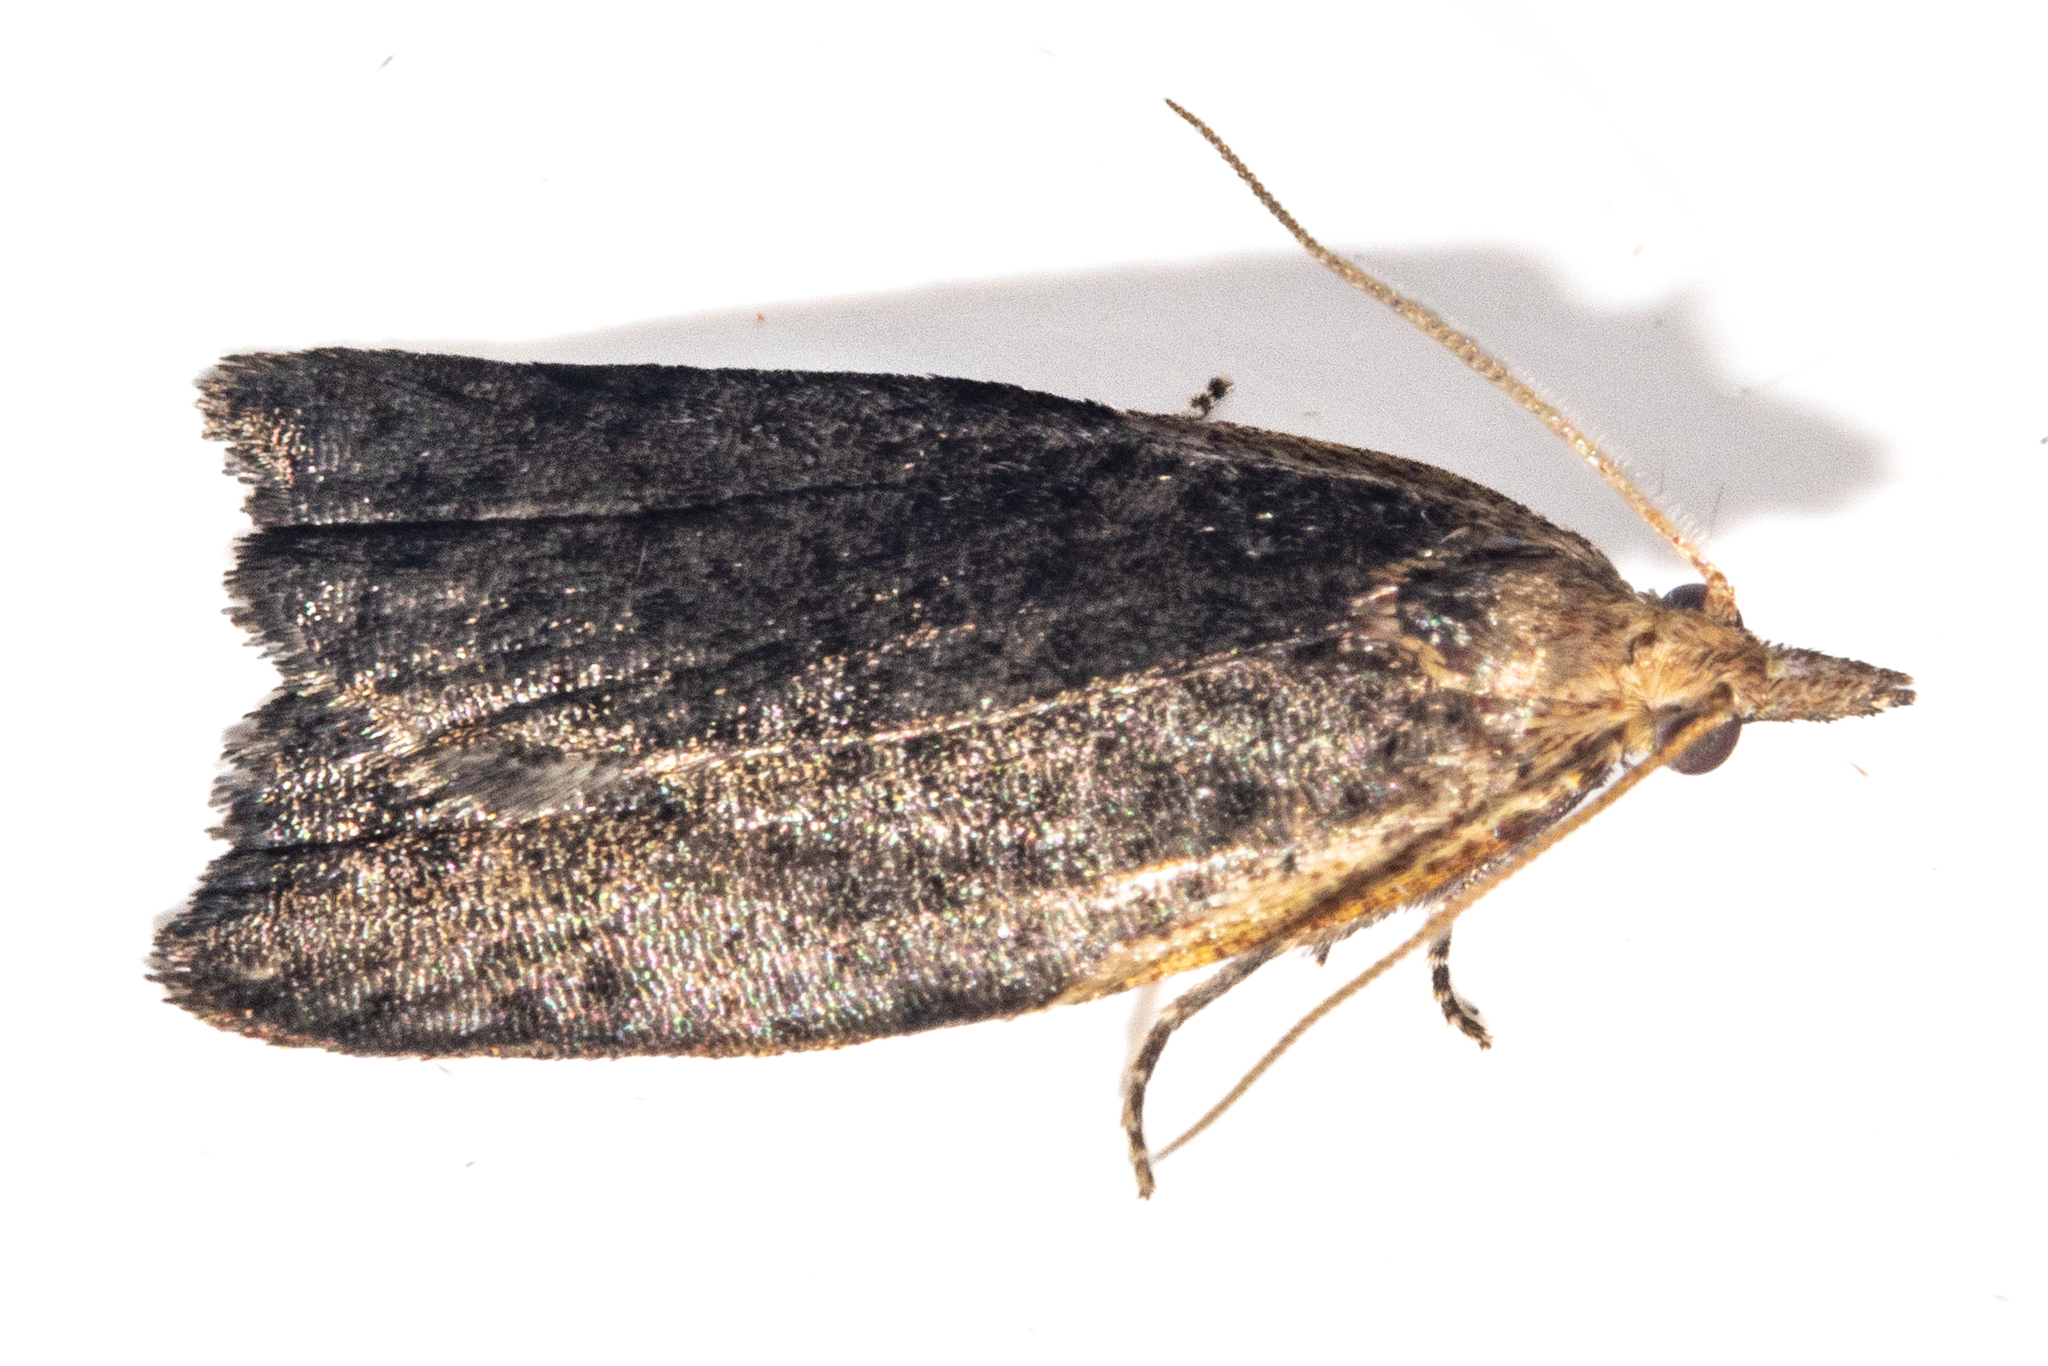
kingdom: Animalia
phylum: Arthropoda
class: Insecta
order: Lepidoptera
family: Tortricidae
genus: Apoctena
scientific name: Apoctena flavescens
